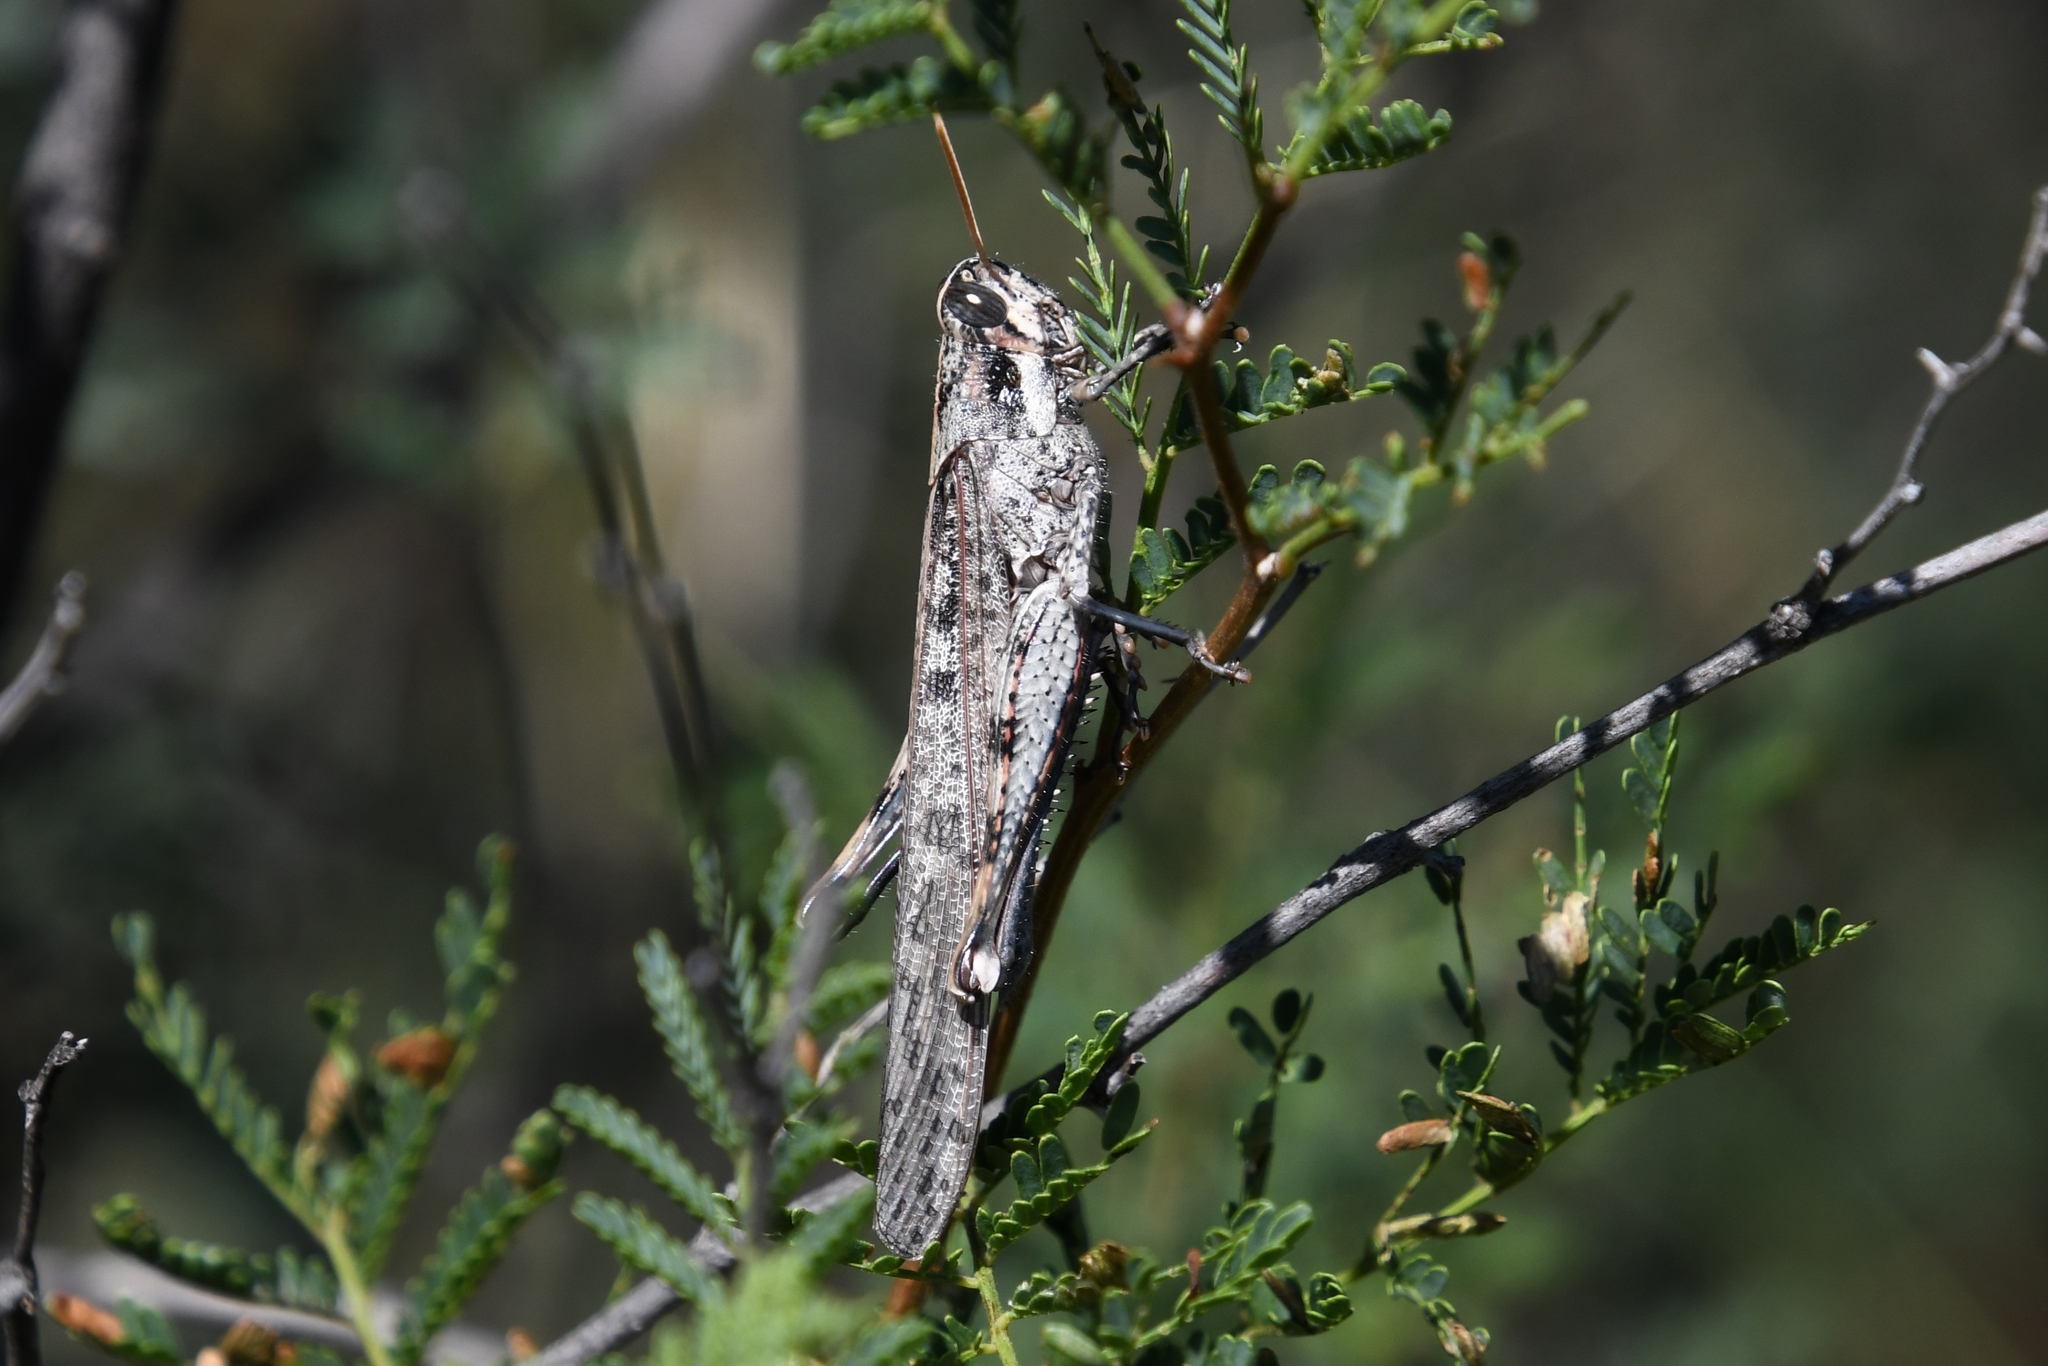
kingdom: Animalia
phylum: Arthropoda
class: Insecta
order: Orthoptera
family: Acrididae
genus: Schistocerca
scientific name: Schistocerca nitens
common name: Vagrant grasshopper
